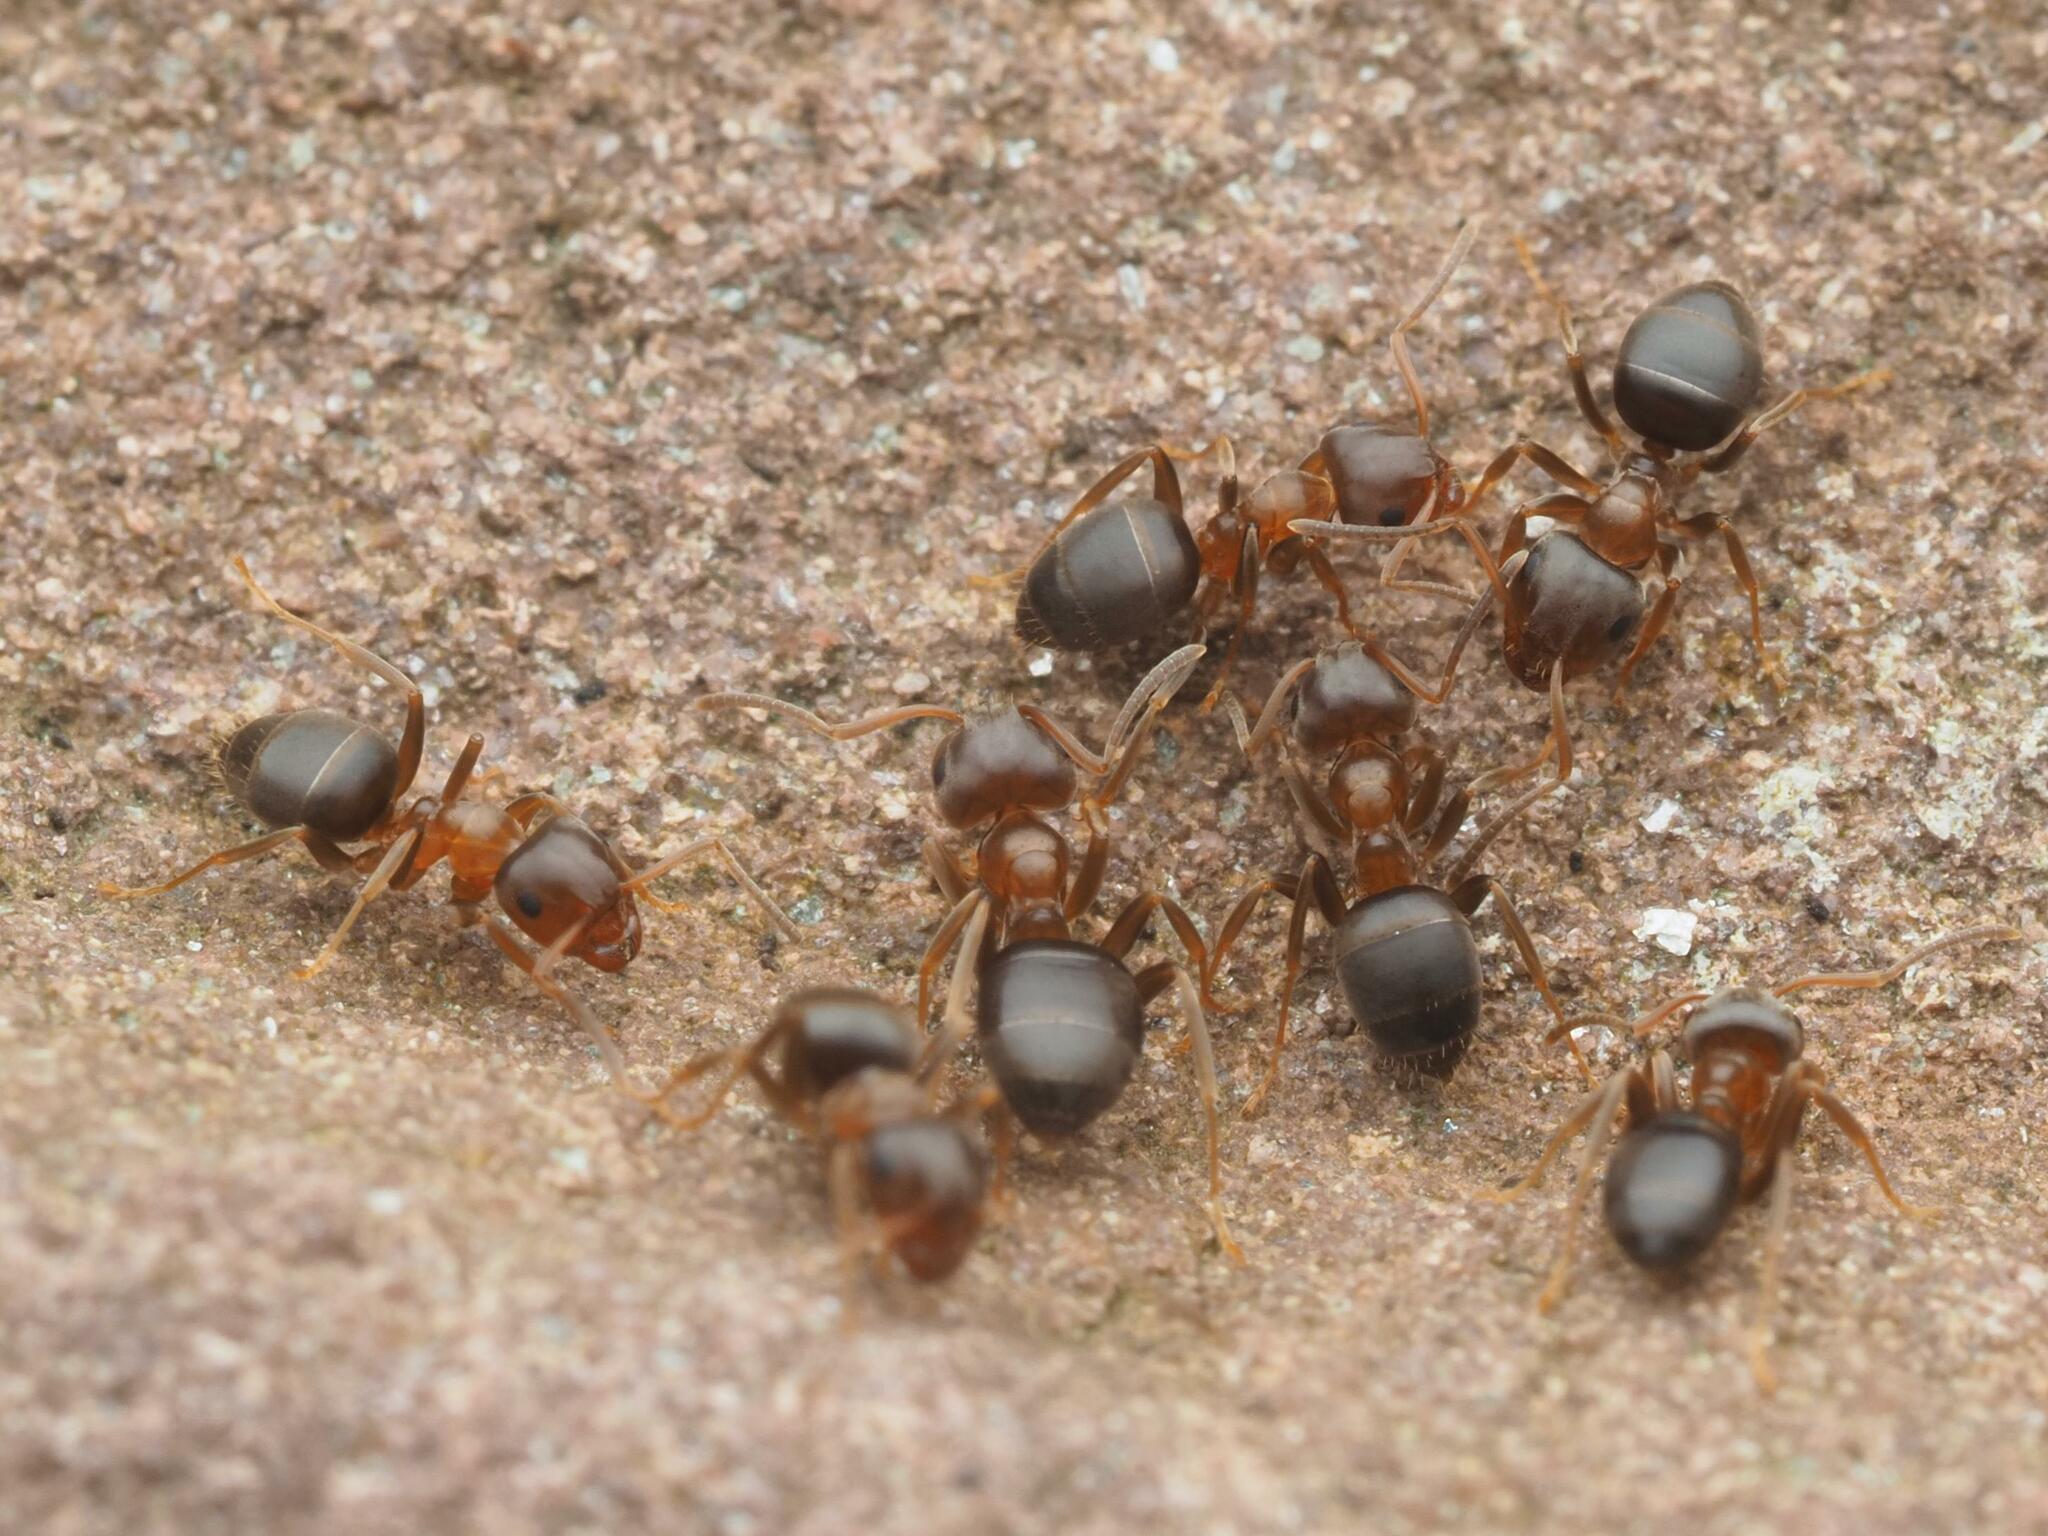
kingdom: Animalia
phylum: Arthropoda
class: Insecta
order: Hymenoptera
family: Formicidae
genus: Lasius
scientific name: Lasius brunneus
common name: Brown ant
